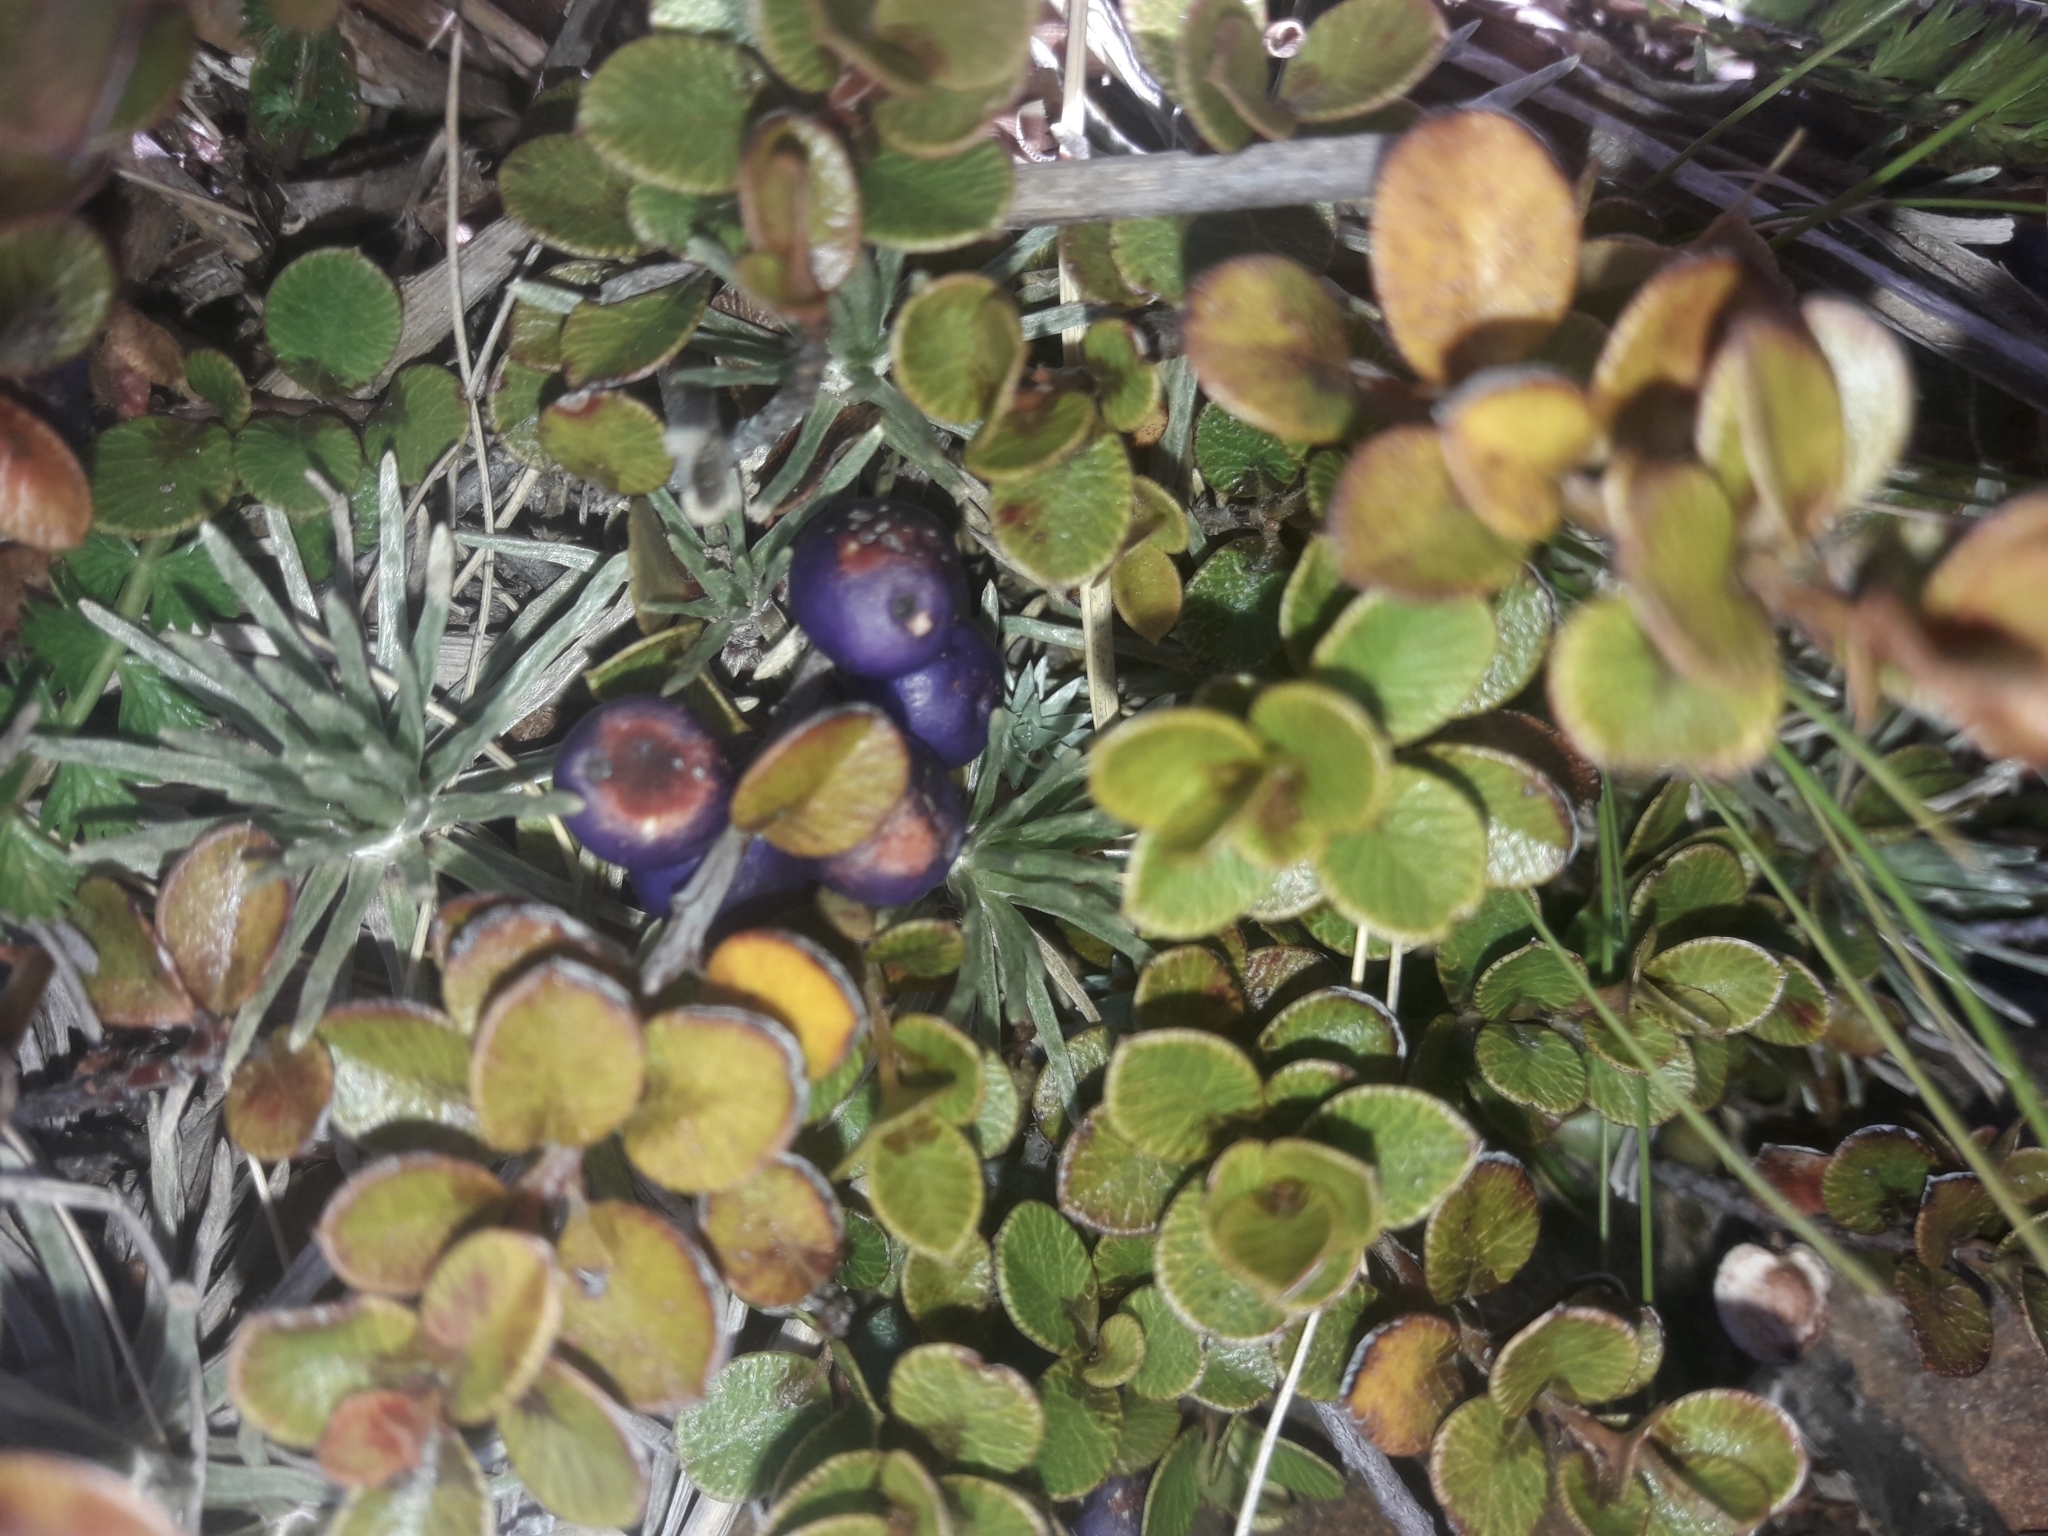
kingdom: Plantae
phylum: Tracheophyta
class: Magnoliopsida
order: Ericales
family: Primulaceae
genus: Myrsine
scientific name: Myrsine nummularia
